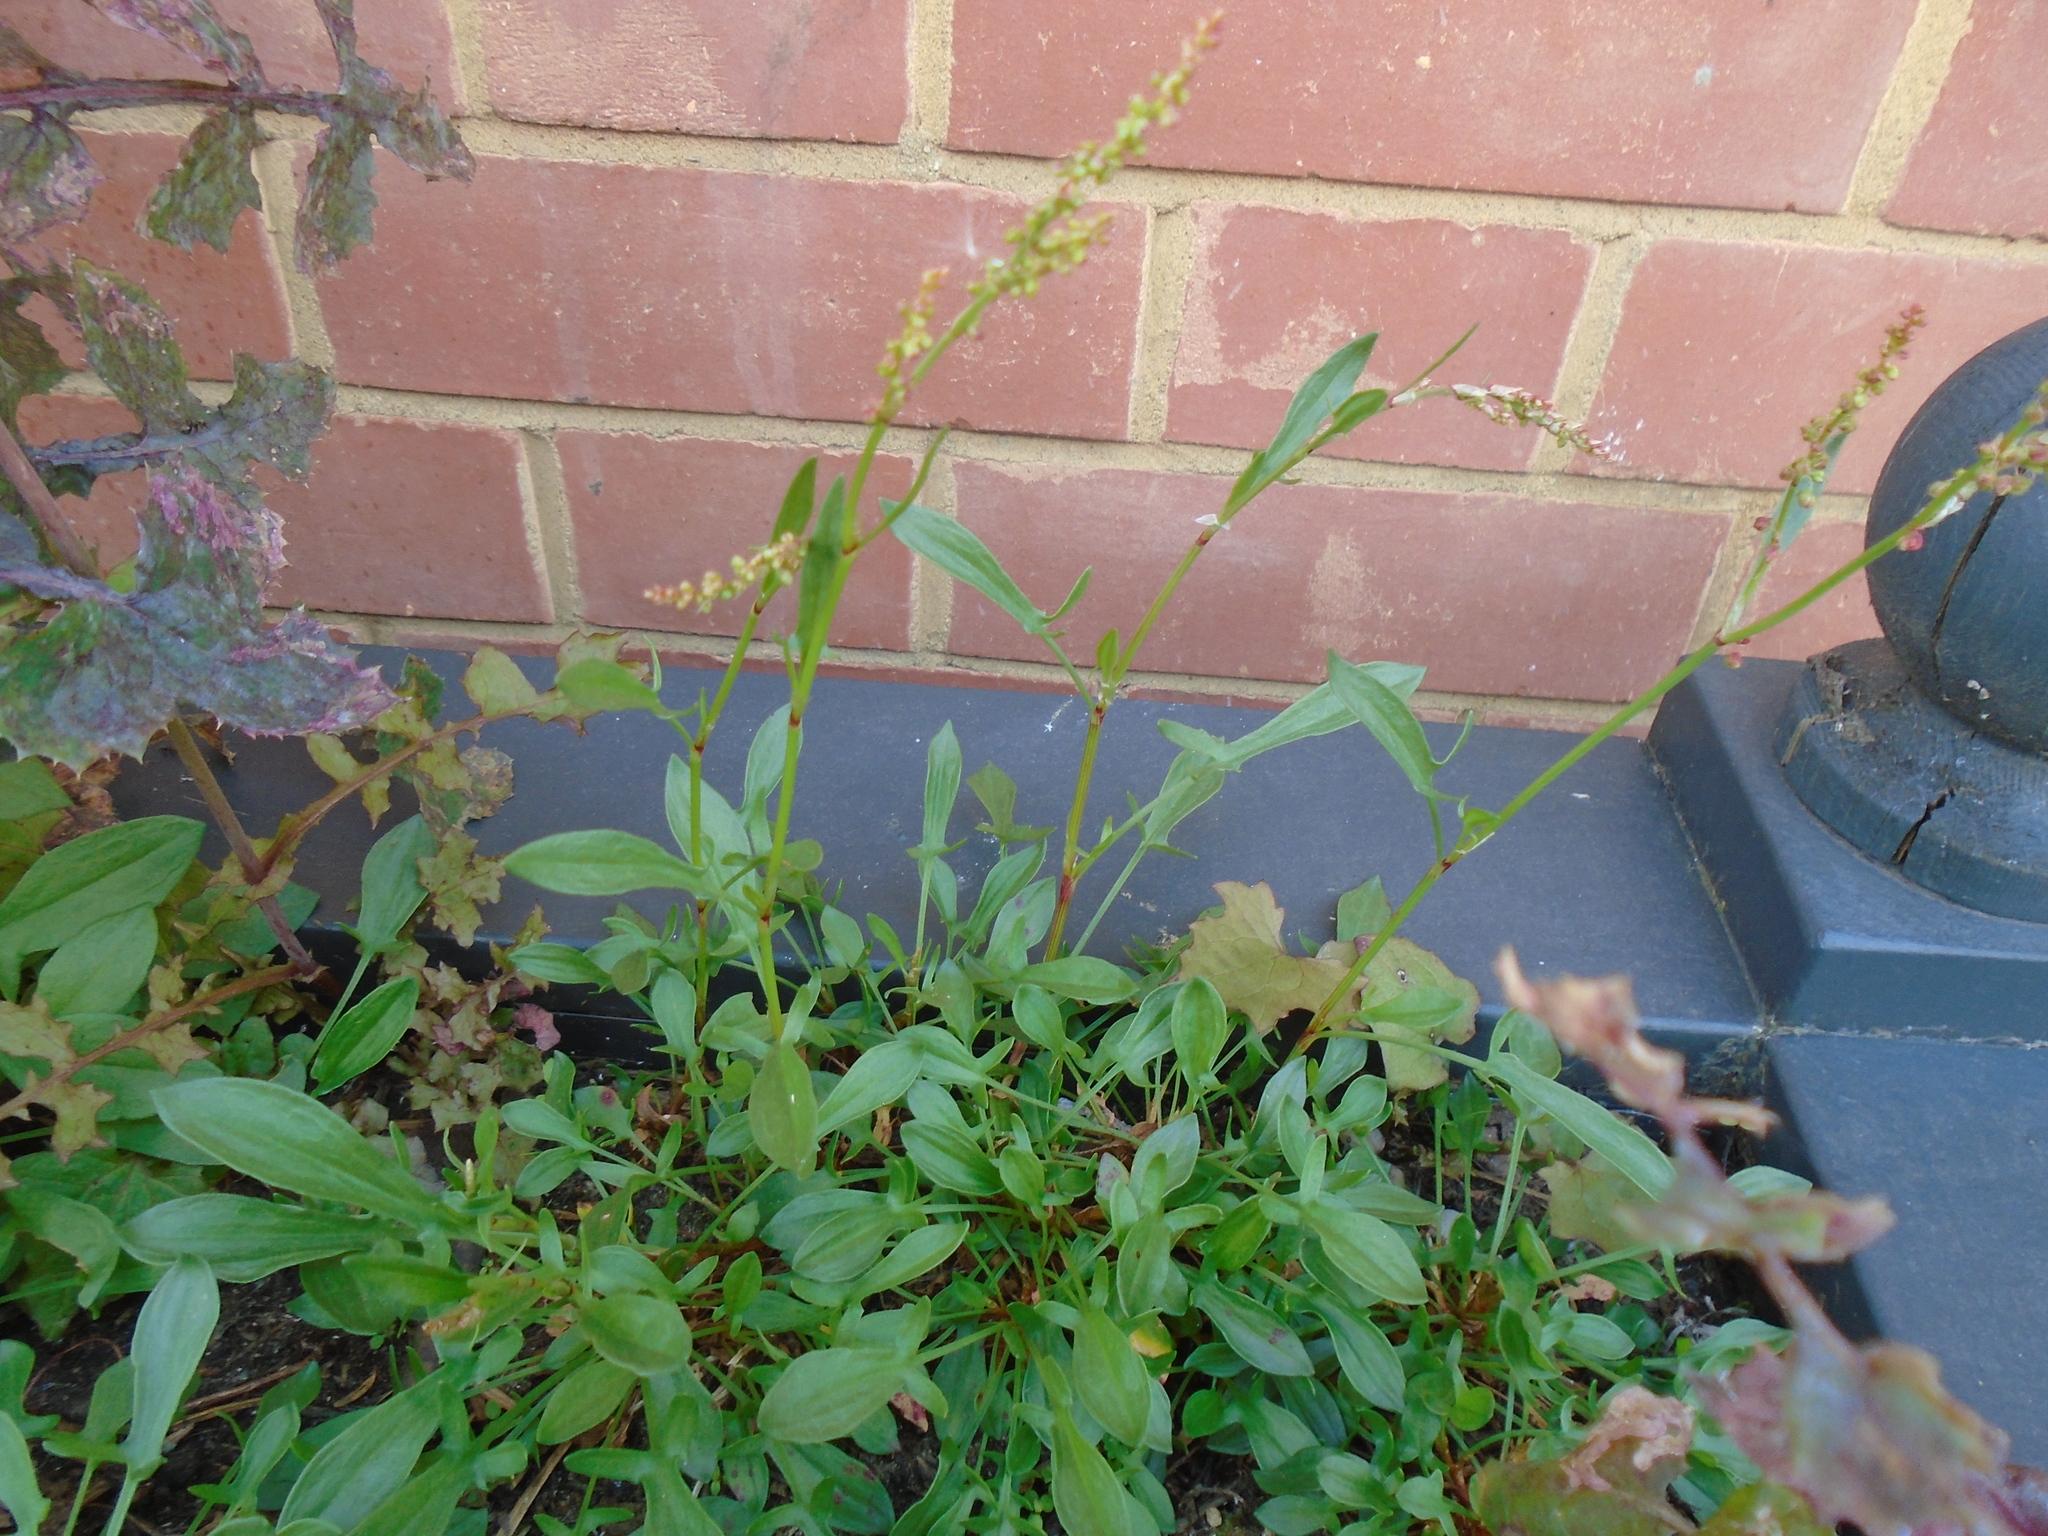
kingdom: Plantae
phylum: Tracheophyta
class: Magnoliopsida
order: Caryophyllales
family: Polygonaceae
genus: Rumex
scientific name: Rumex acetosella
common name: Common sheep sorrel
